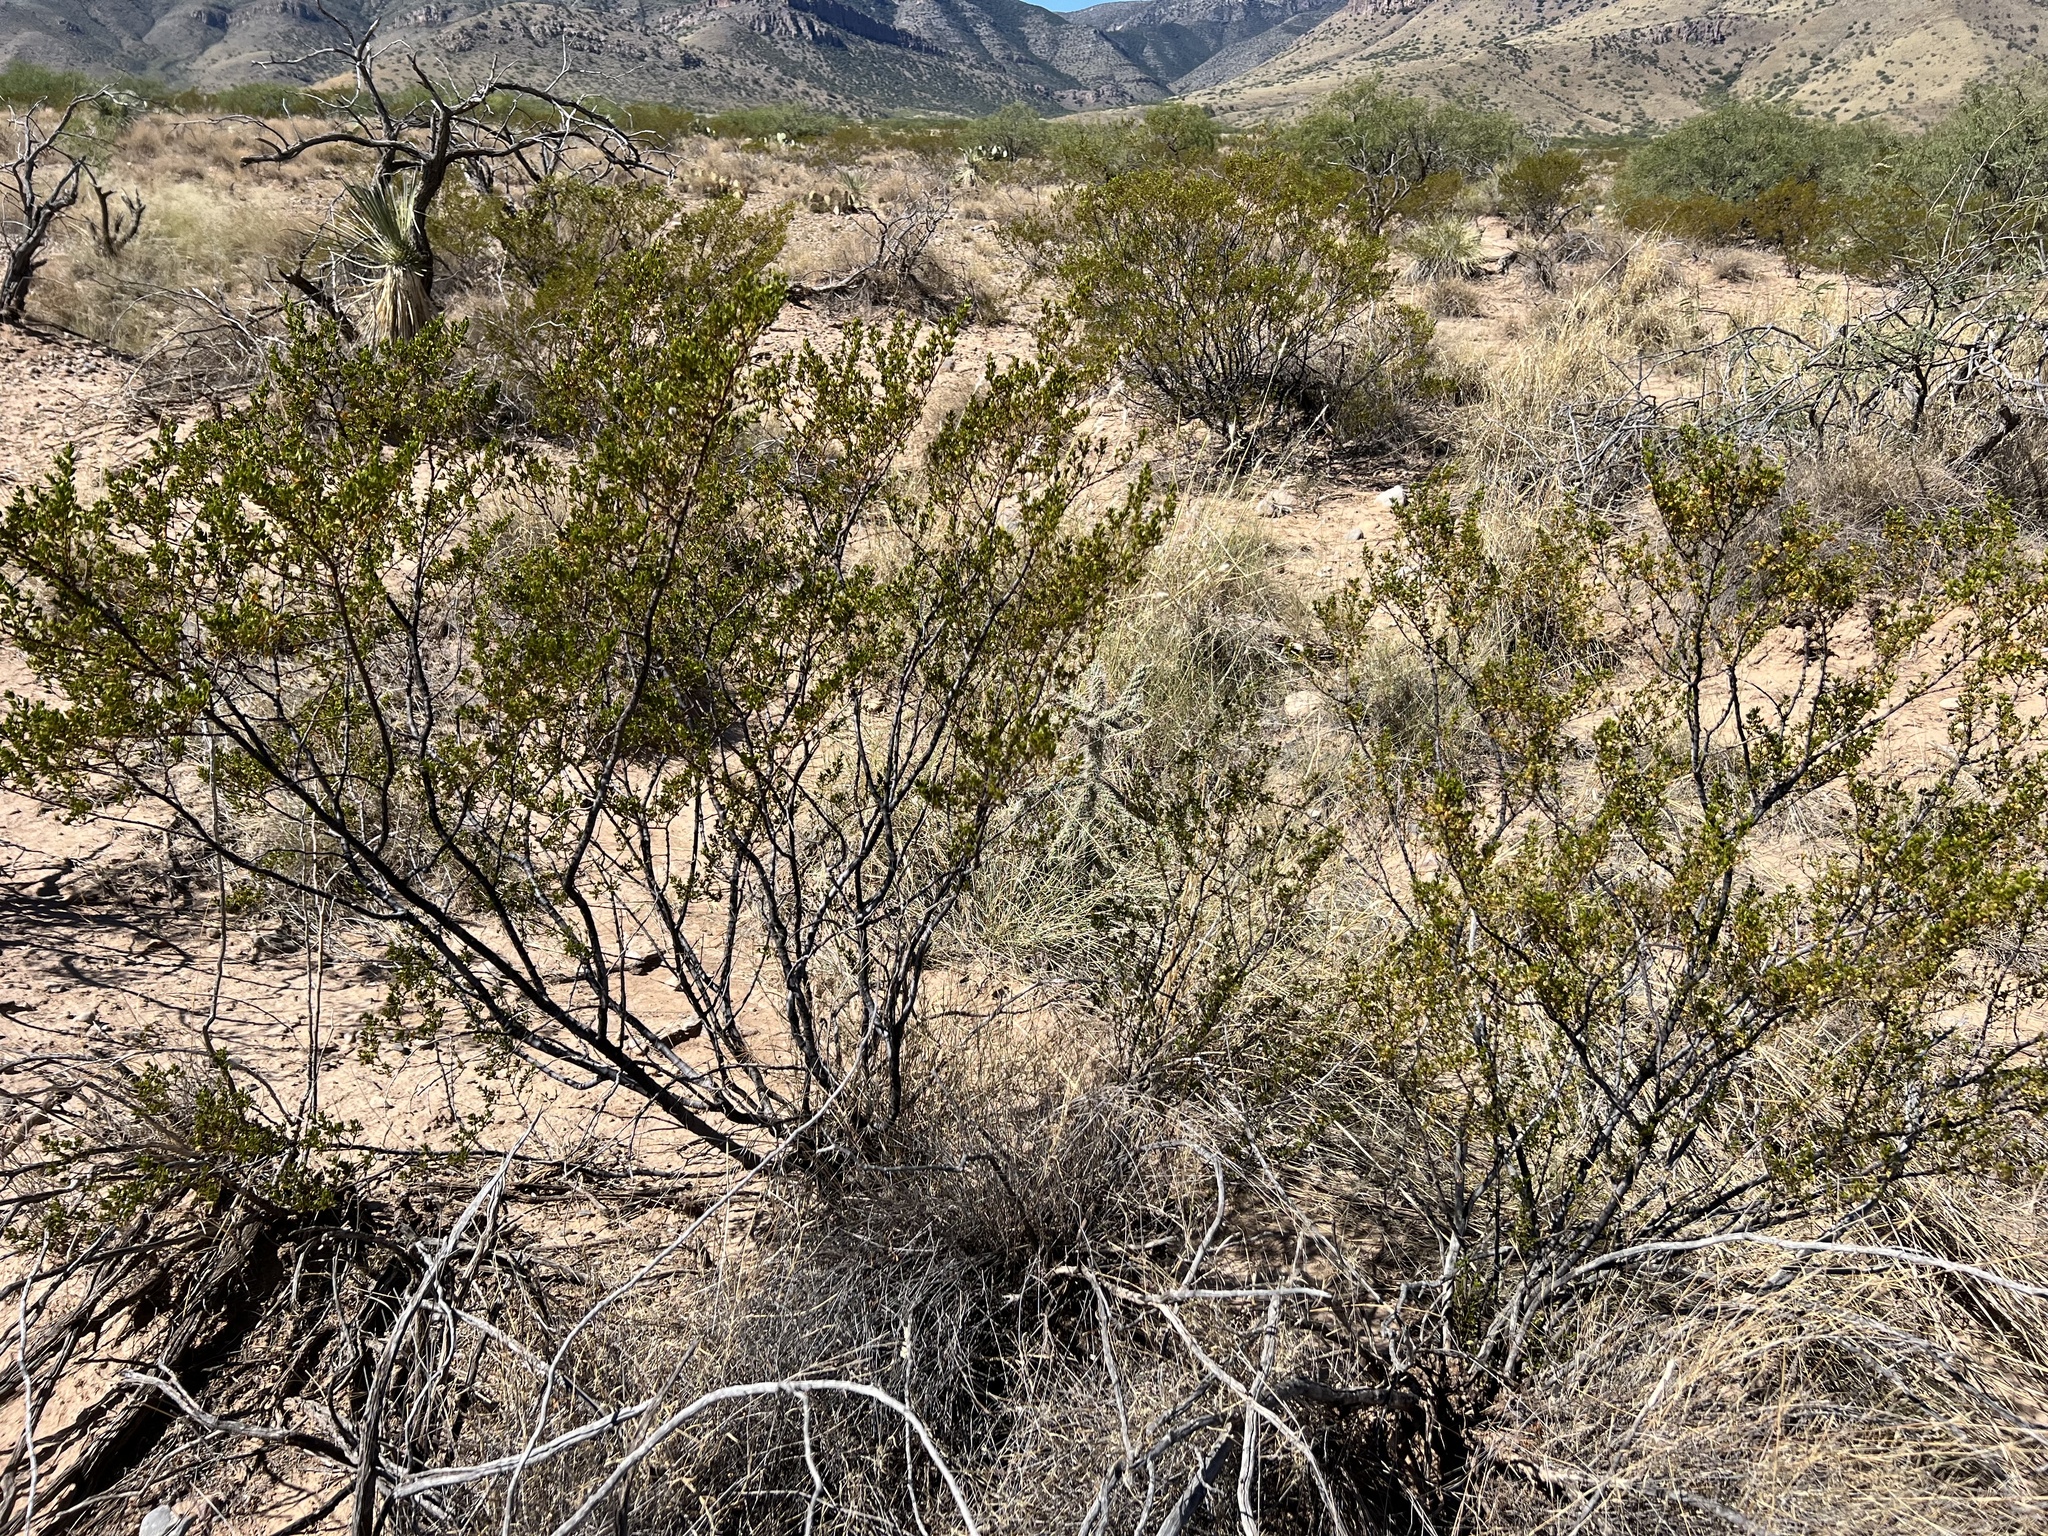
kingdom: Plantae
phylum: Tracheophyta
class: Magnoliopsida
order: Zygophyllales
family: Zygophyllaceae
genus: Larrea
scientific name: Larrea tridentata
